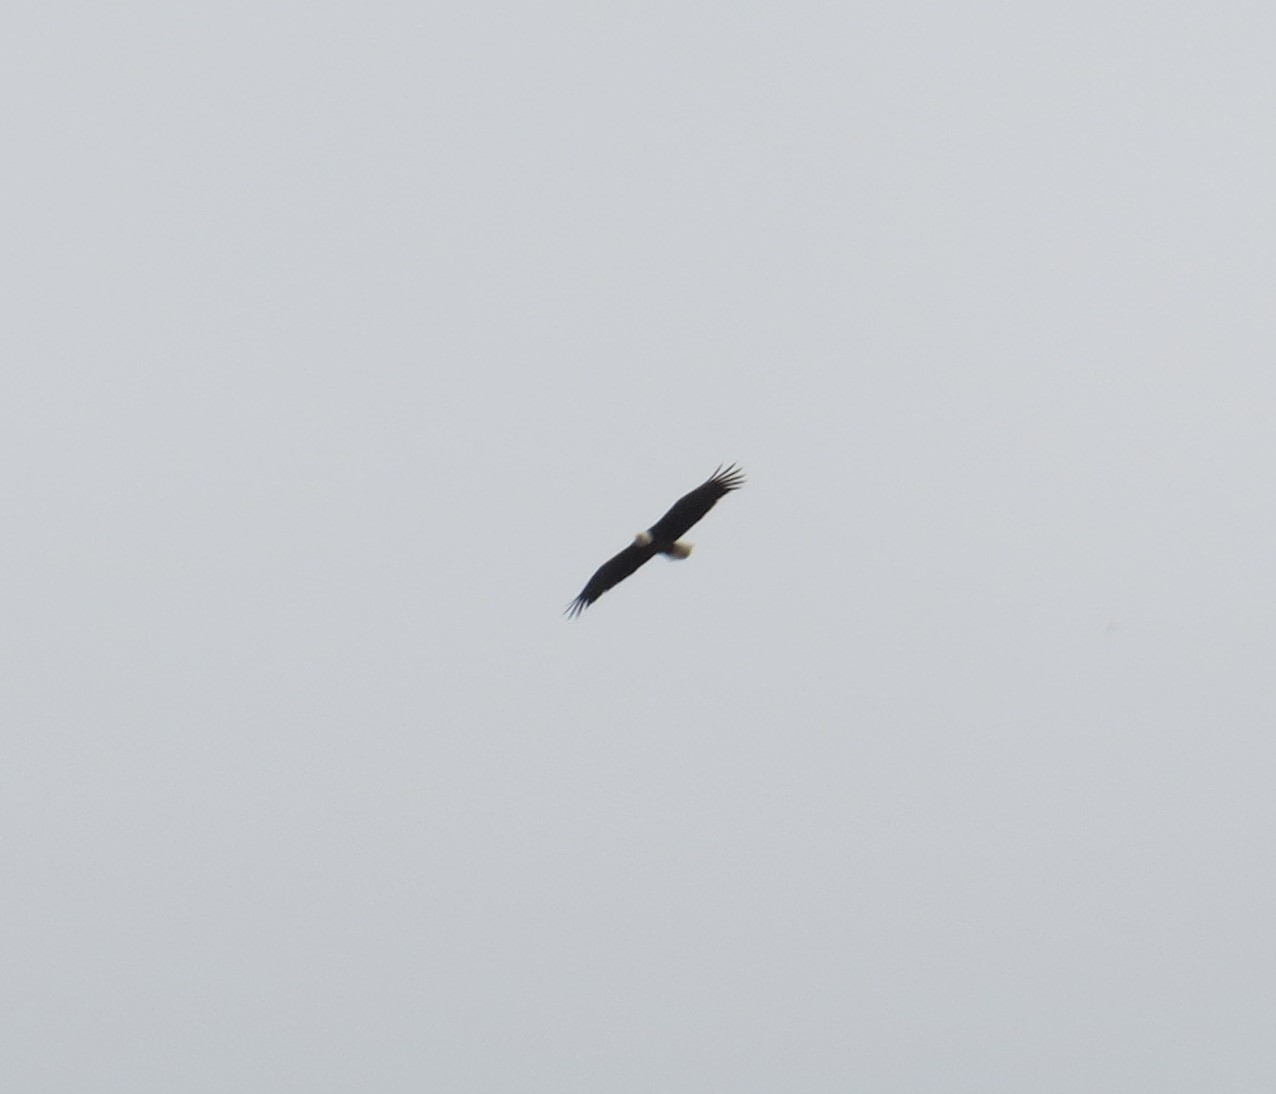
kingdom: Animalia
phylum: Chordata
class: Aves
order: Accipitriformes
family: Accipitridae
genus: Haliaeetus
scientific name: Haliaeetus leucocephalus
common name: Bald eagle
